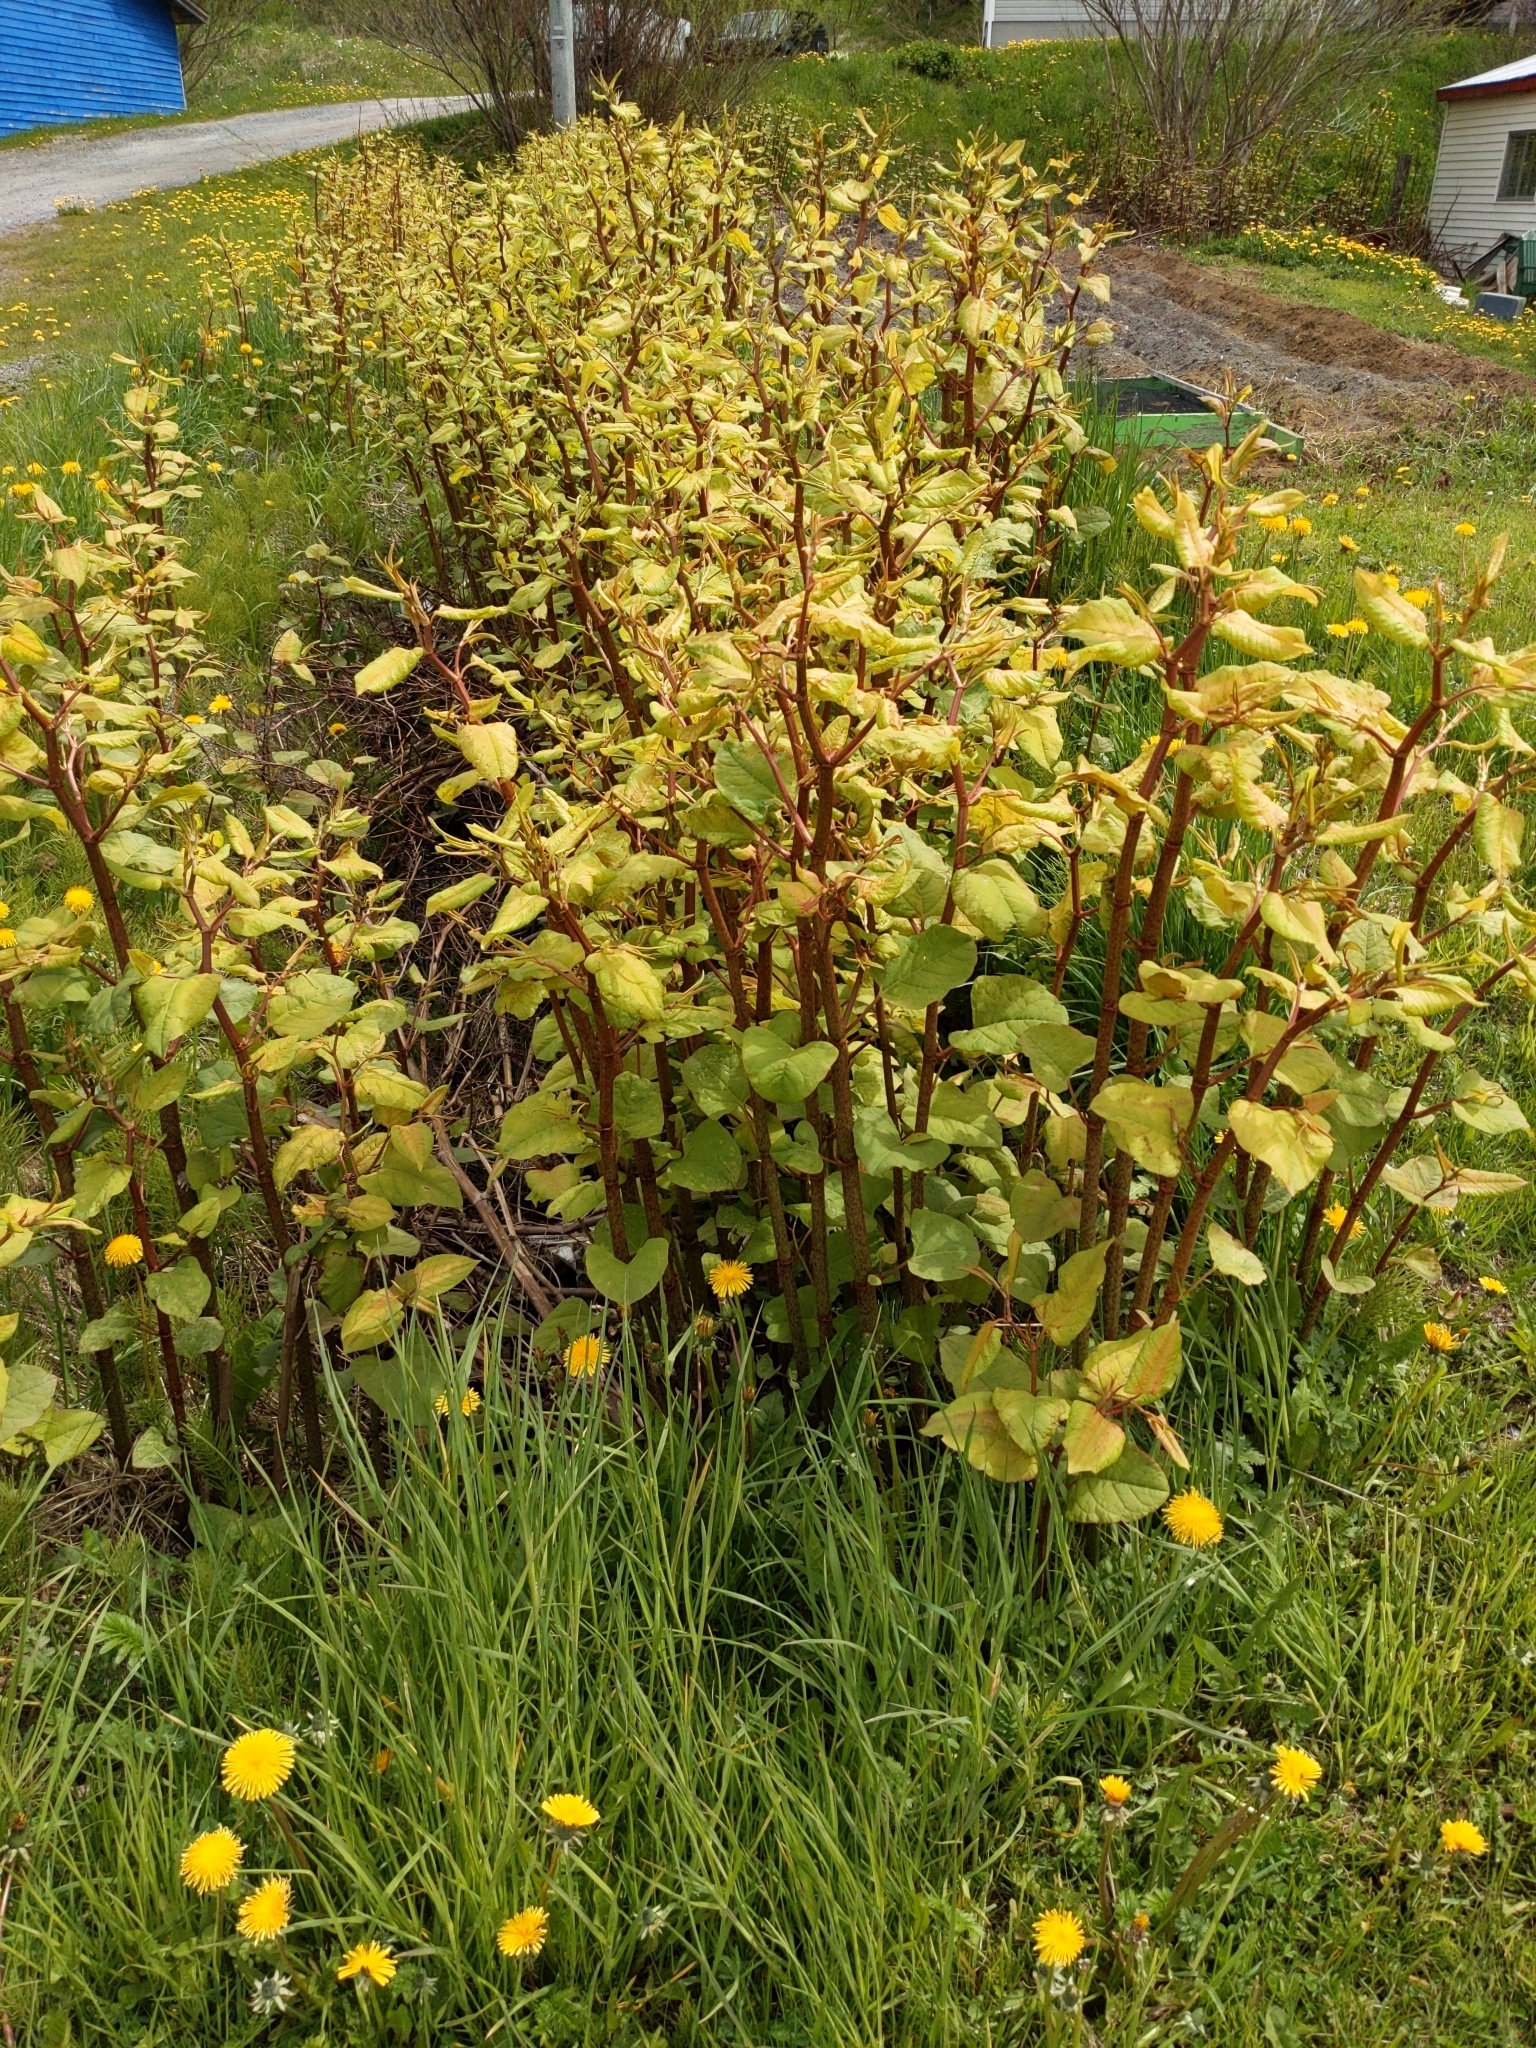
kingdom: Plantae
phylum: Tracheophyta
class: Magnoliopsida
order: Caryophyllales
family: Polygonaceae
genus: Reynoutria
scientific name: Reynoutria japonica
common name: Japanese knotweed
